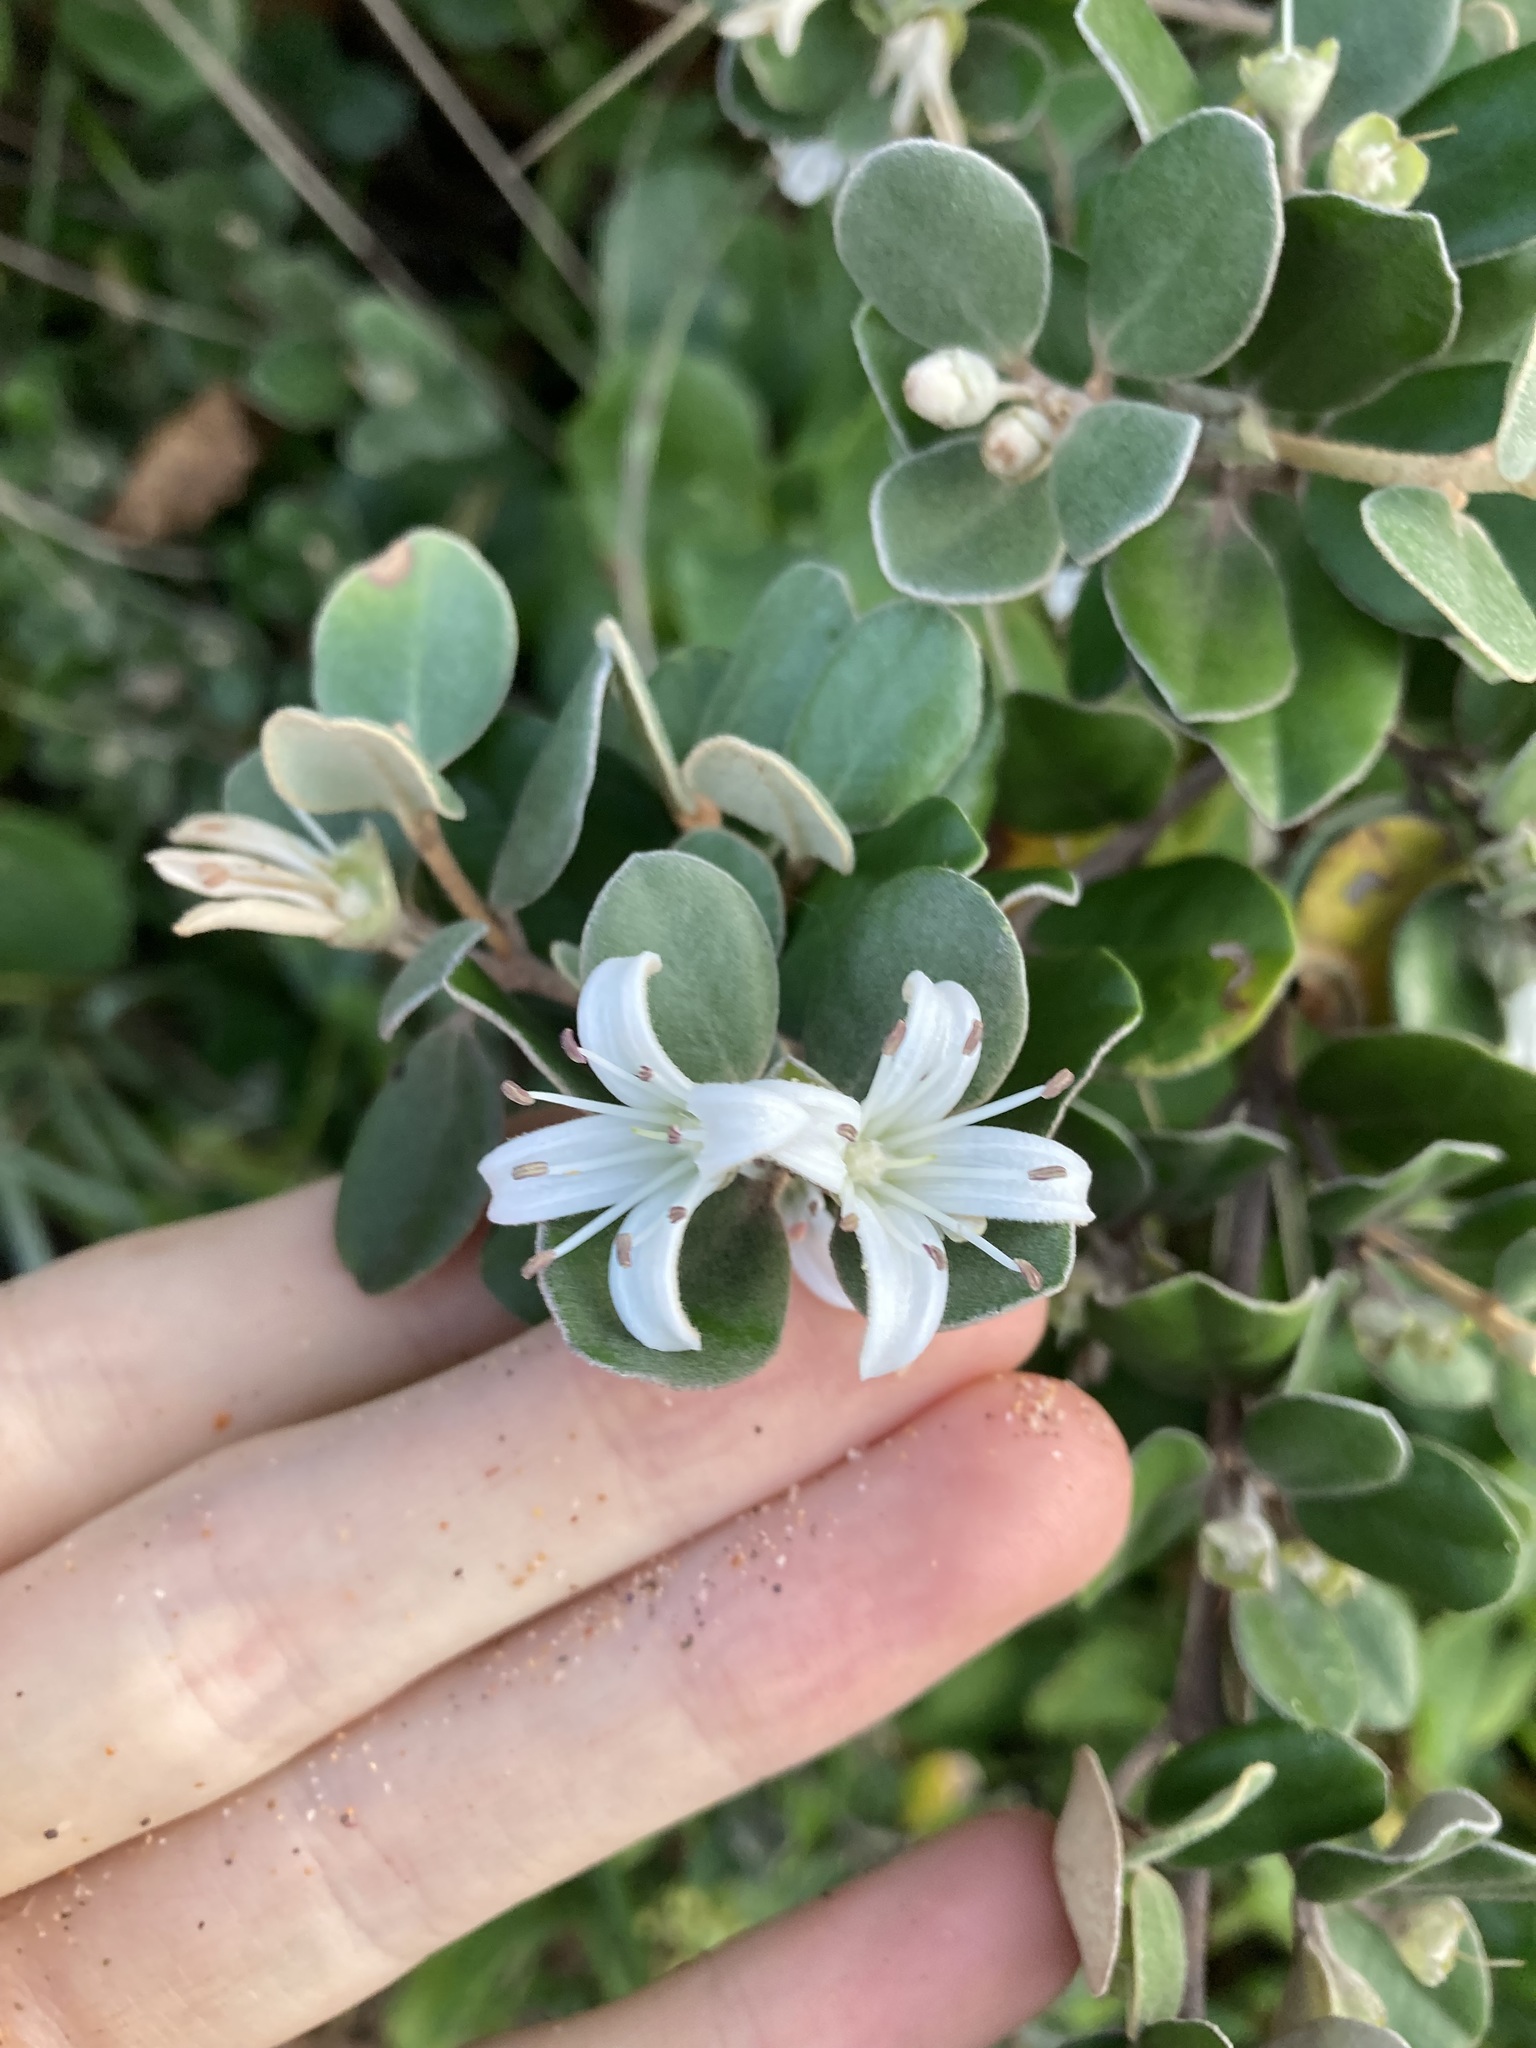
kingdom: Plantae
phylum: Tracheophyta
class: Magnoliopsida
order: Sapindales
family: Rutaceae
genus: Correa
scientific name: Correa alba
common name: White correa
